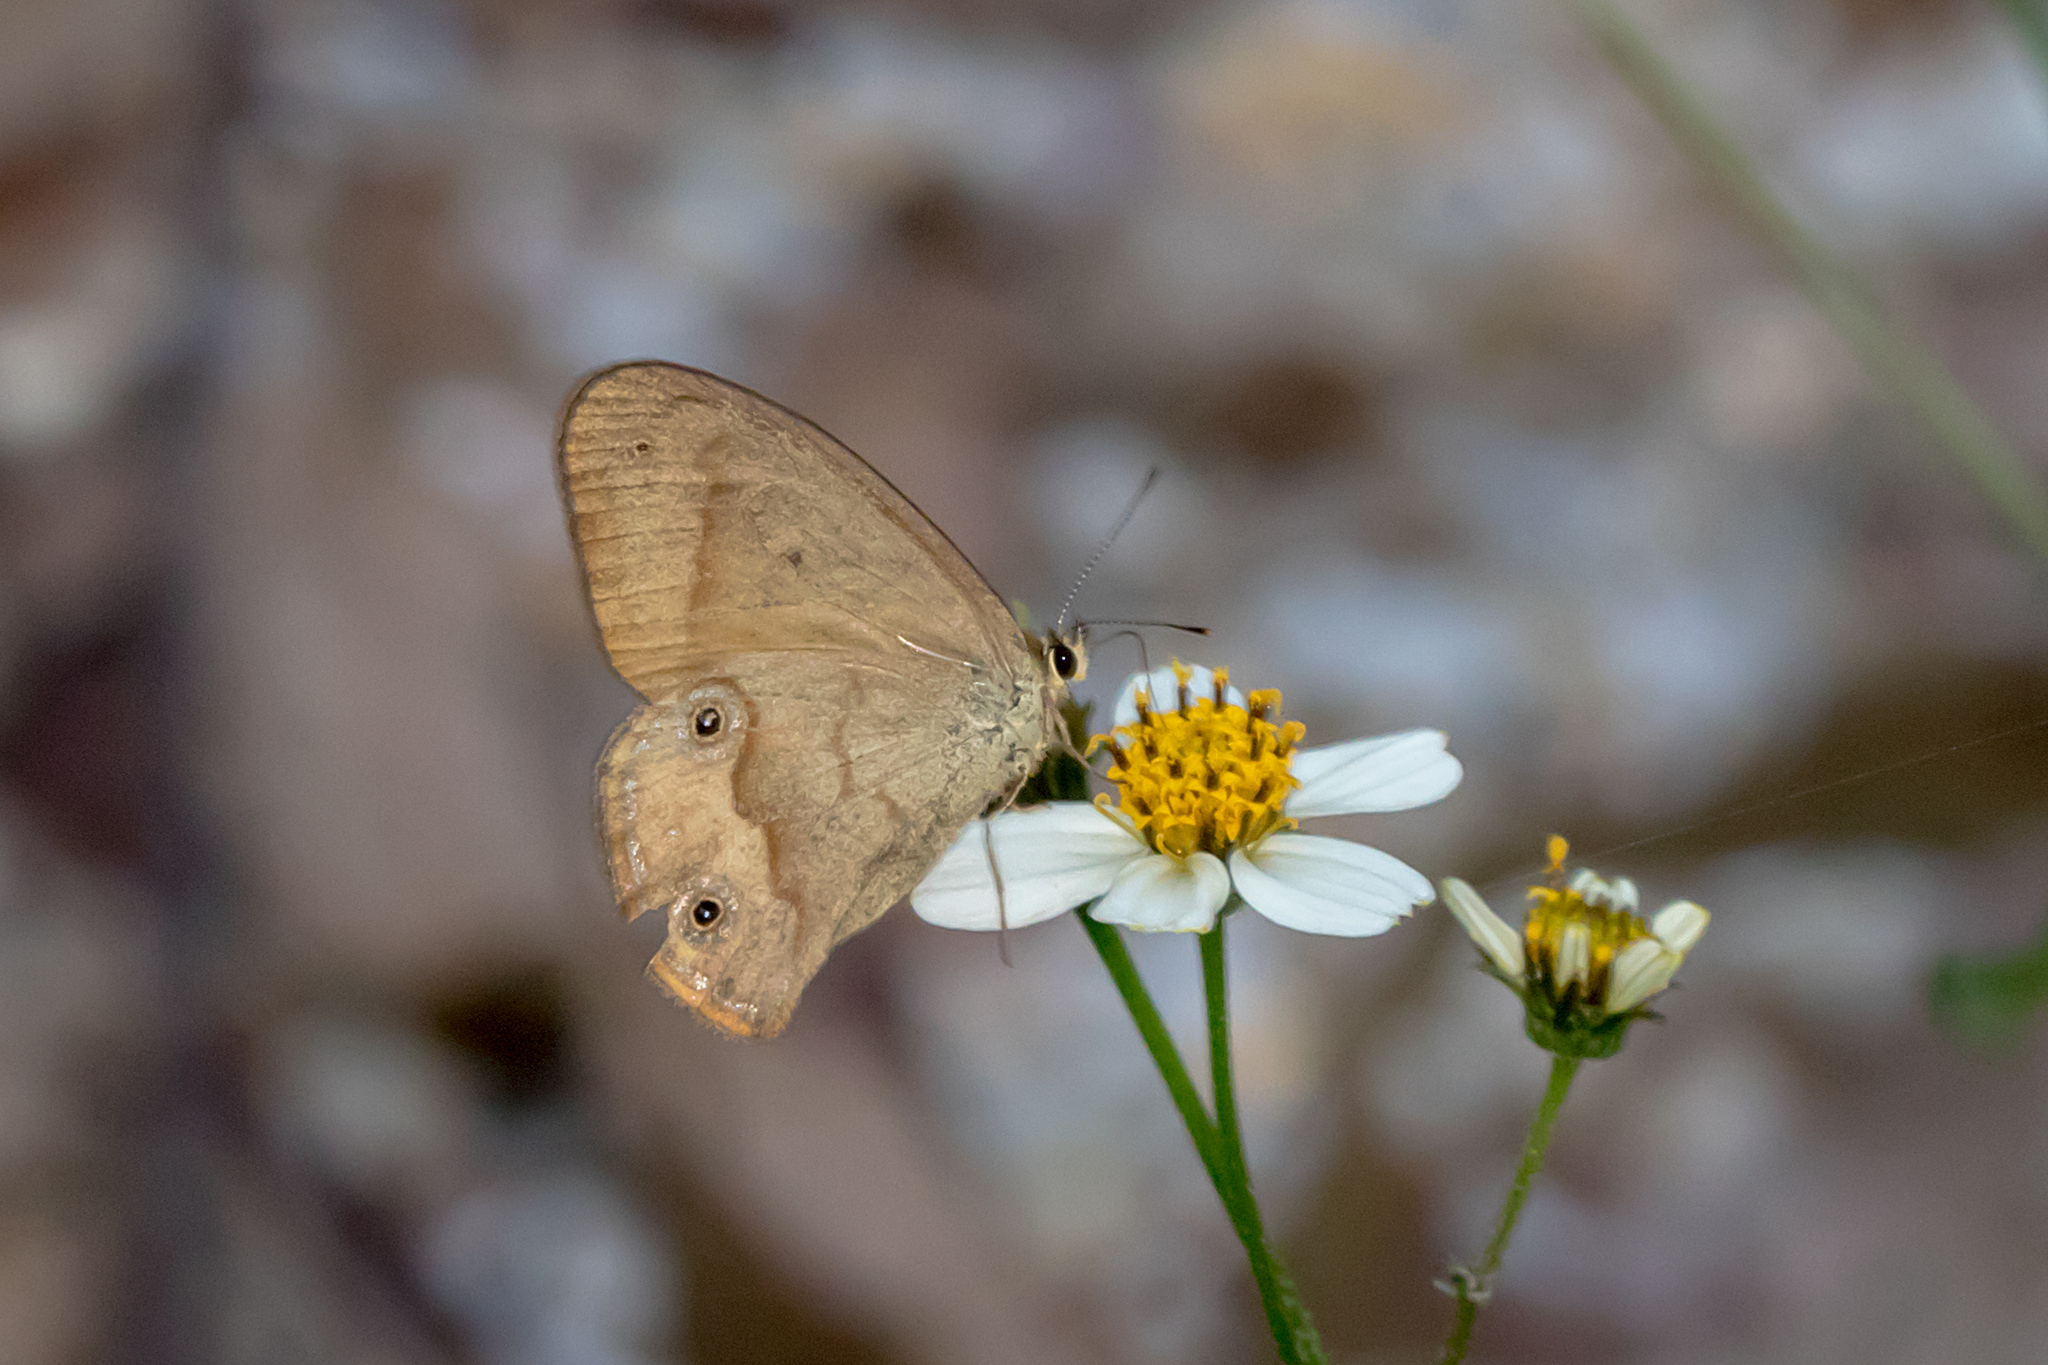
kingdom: Animalia
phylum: Arthropoda
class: Insecta
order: Lepidoptera
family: Nymphalidae
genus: Hypocysta
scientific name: Hypocysta metirius
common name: Brown ringlet
